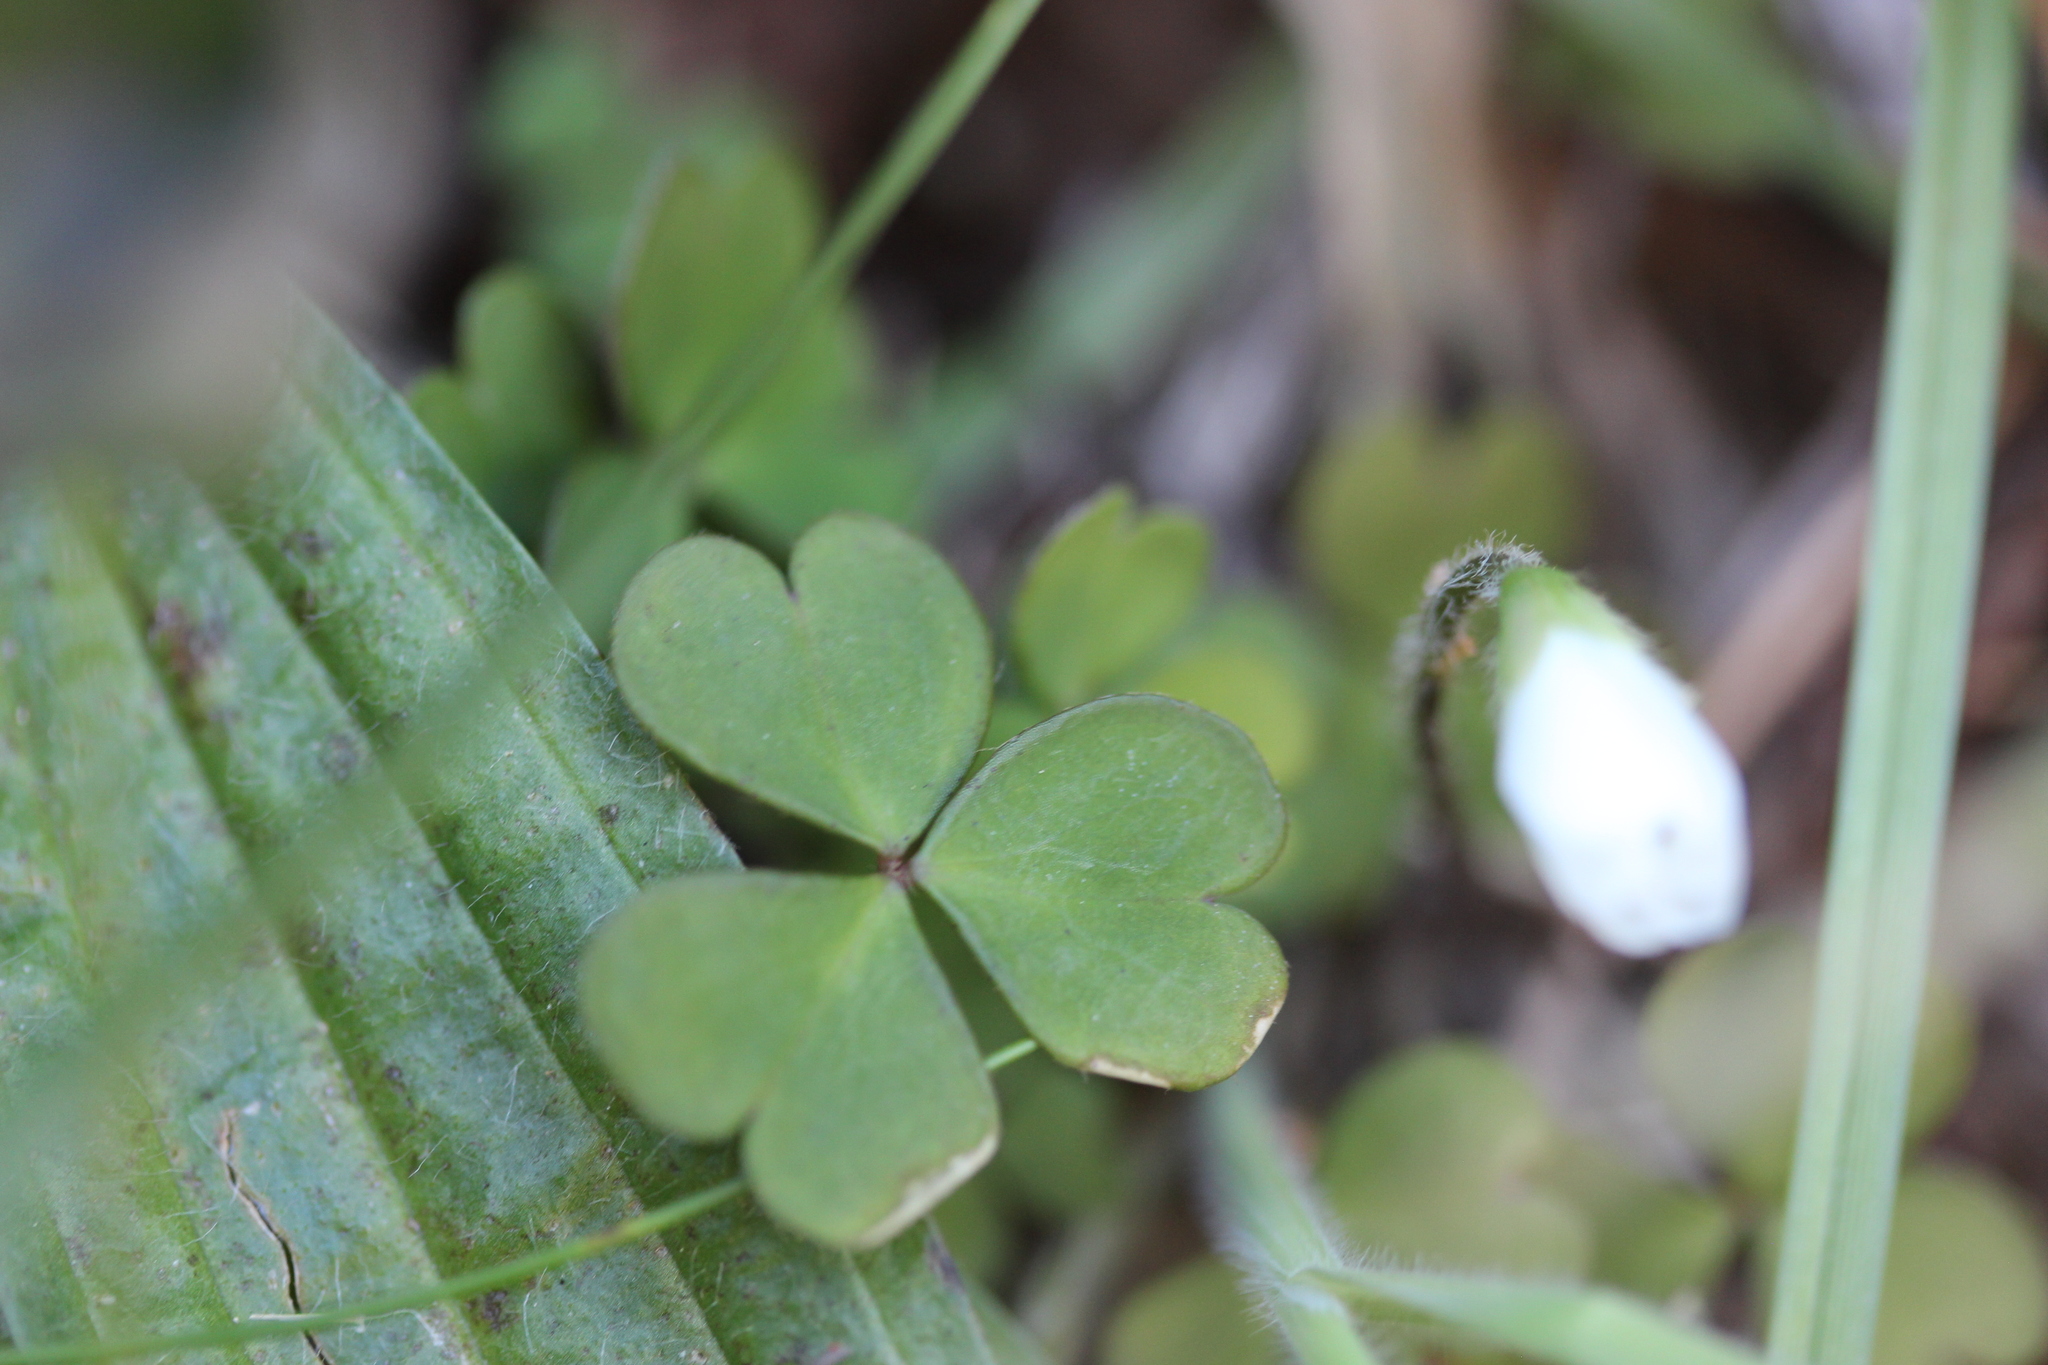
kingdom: Plantae
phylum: Tracheophyta
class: Magnoliopsida
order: Oxalidales
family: Oxalidaceae
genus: Oxalis
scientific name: Oxalis magellanica
